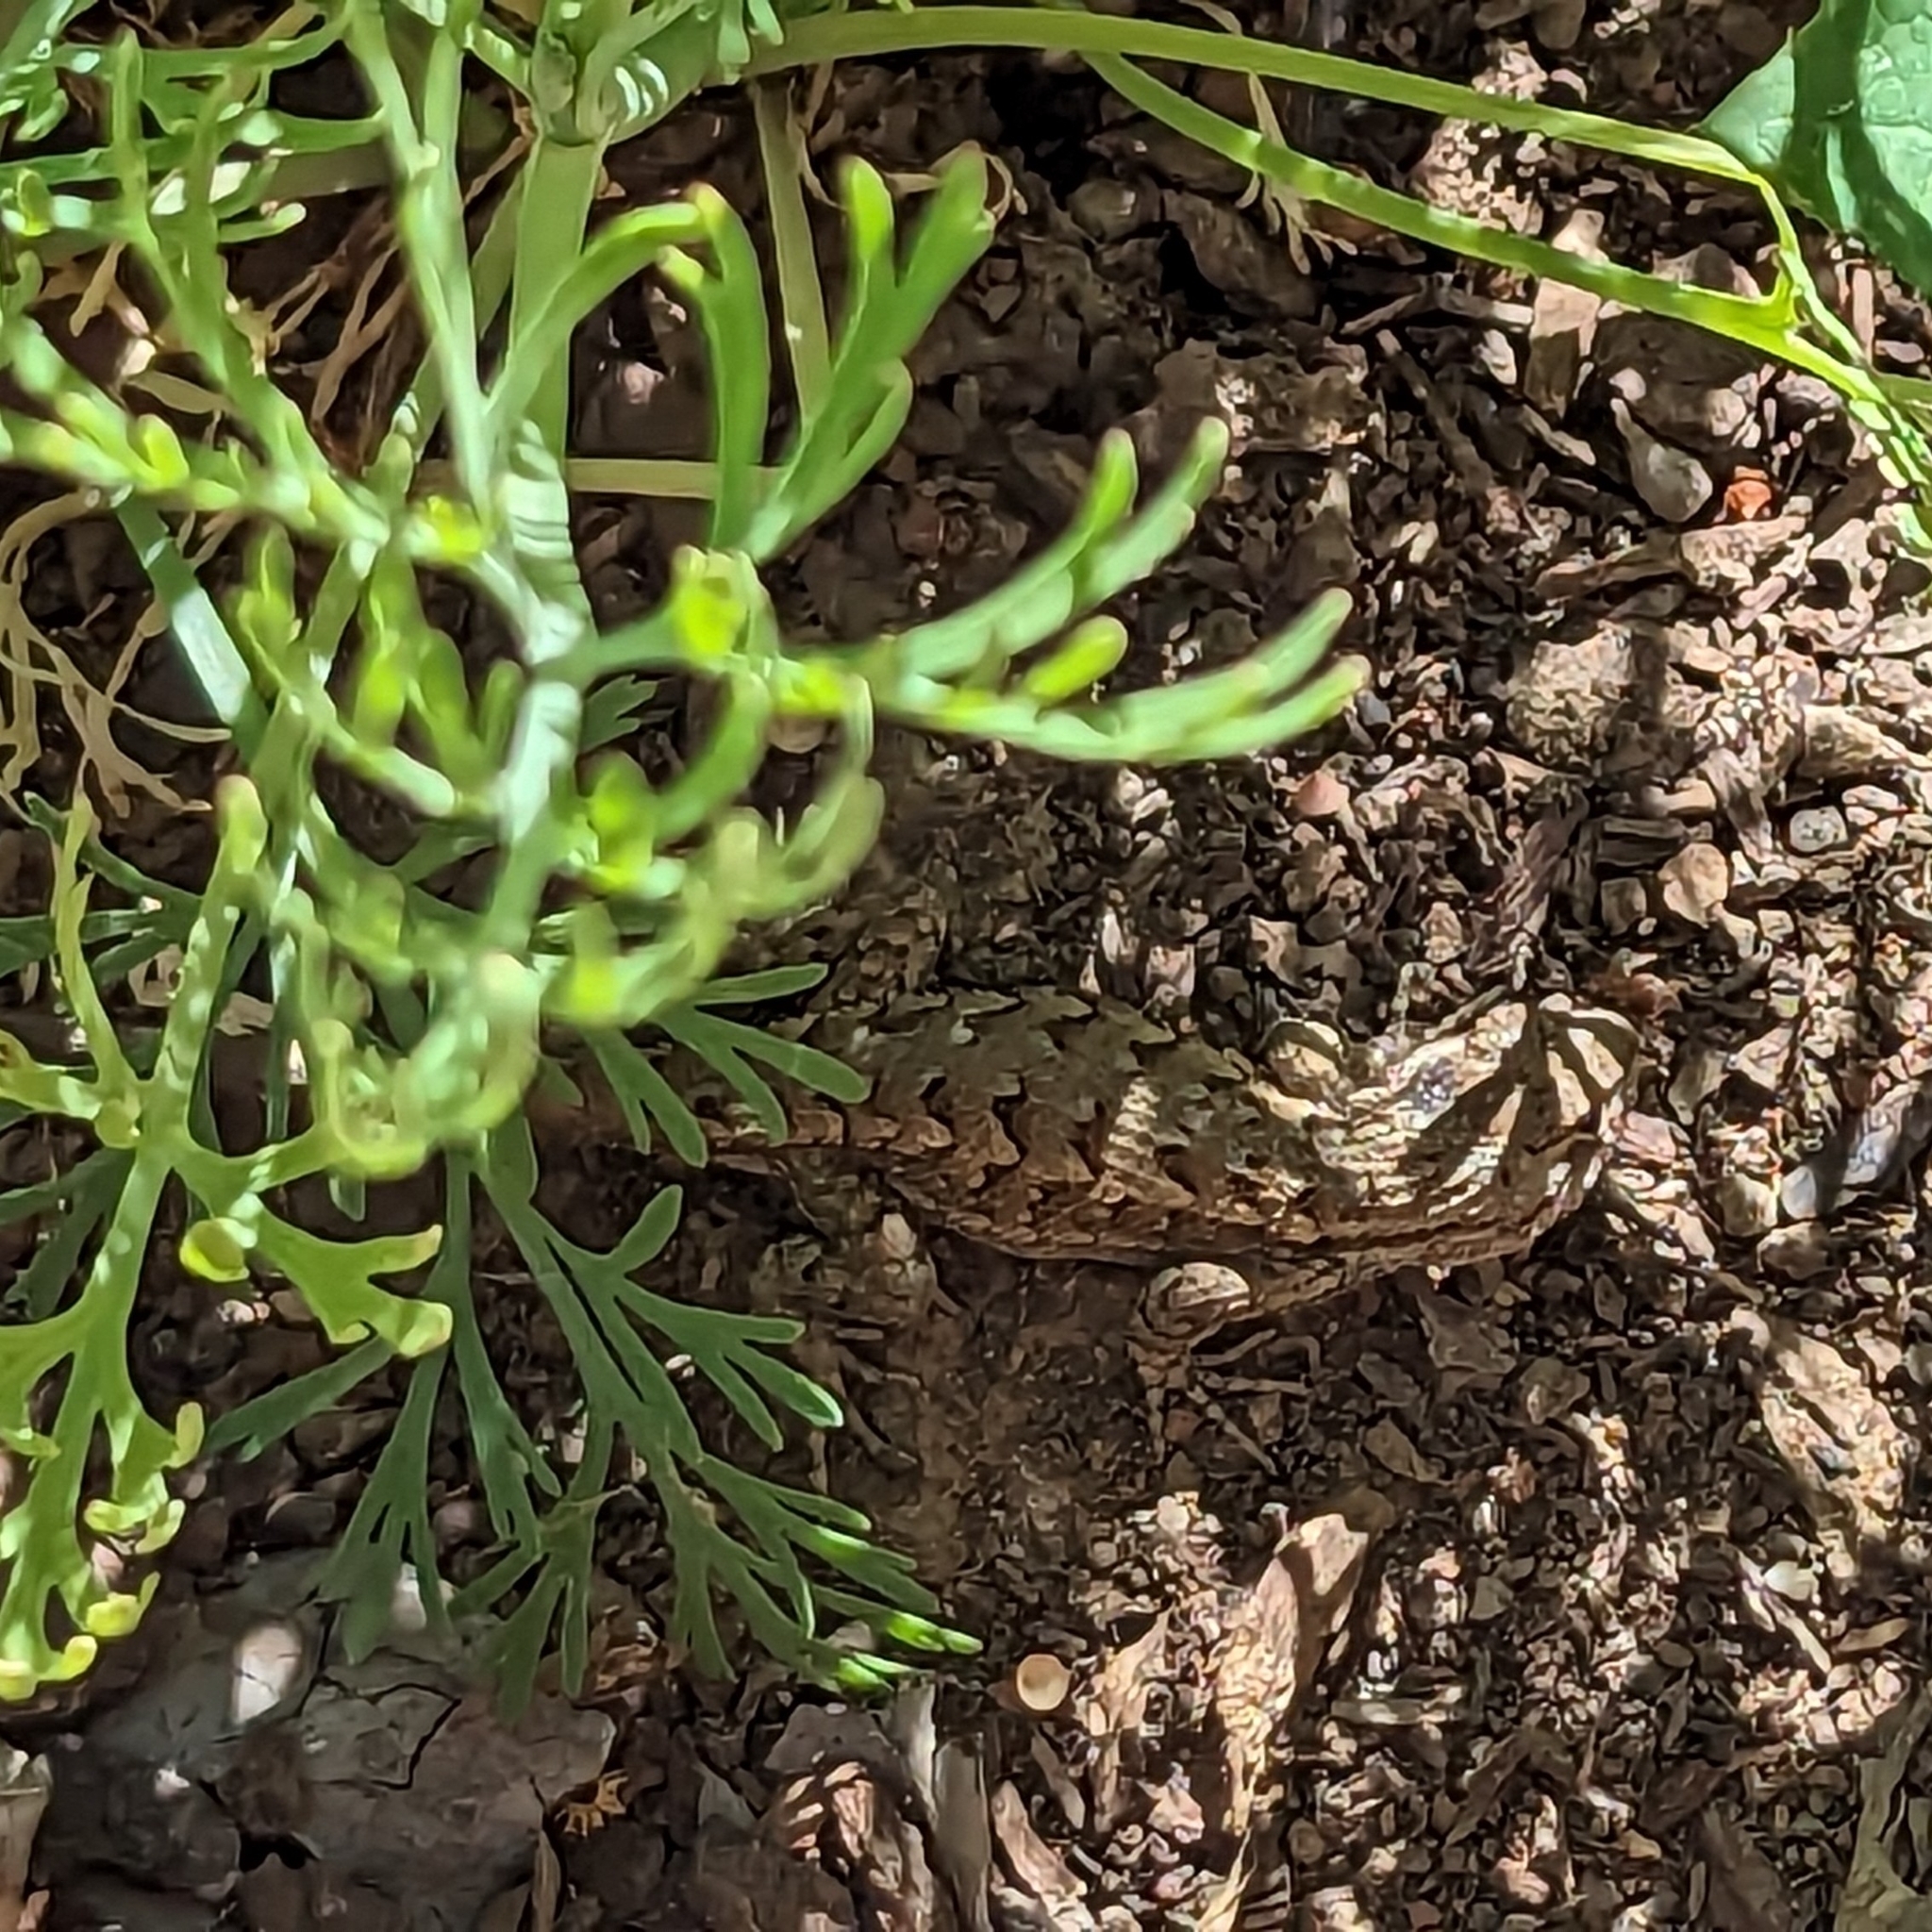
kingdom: Animalia
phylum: Chordata
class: Squamata
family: Phrynosomatidae
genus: Sceloporus
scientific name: Sceloporus occidentalis
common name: Western fence lizard
